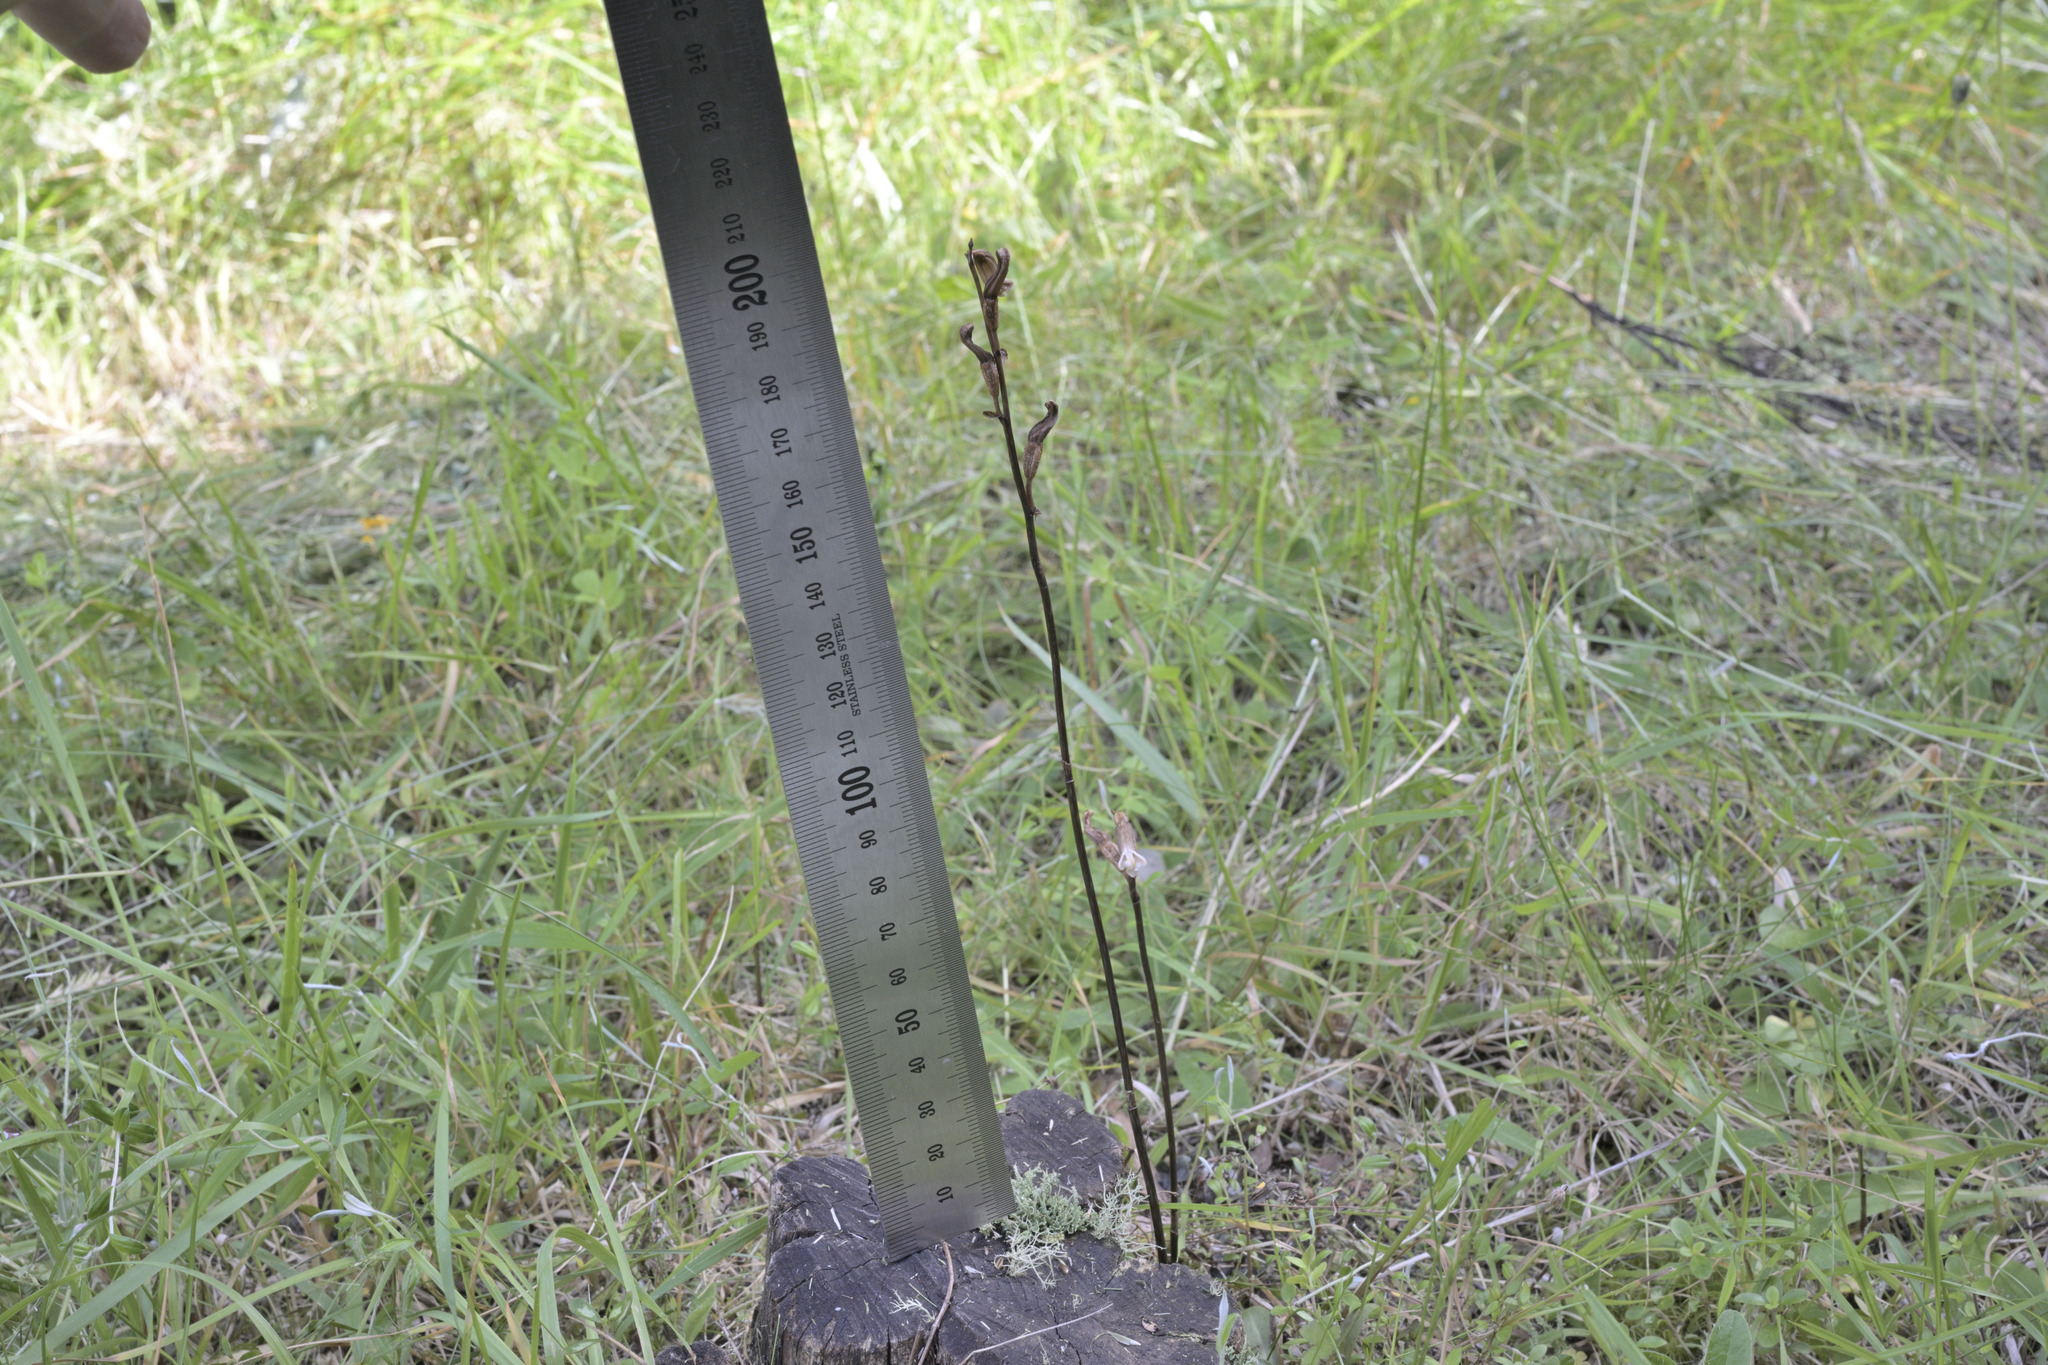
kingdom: Plantae
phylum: Tracheophyta
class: Liliopsida
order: Asparagales
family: Orchidaceae
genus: Gastrodia
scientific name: Gastrodia minor
